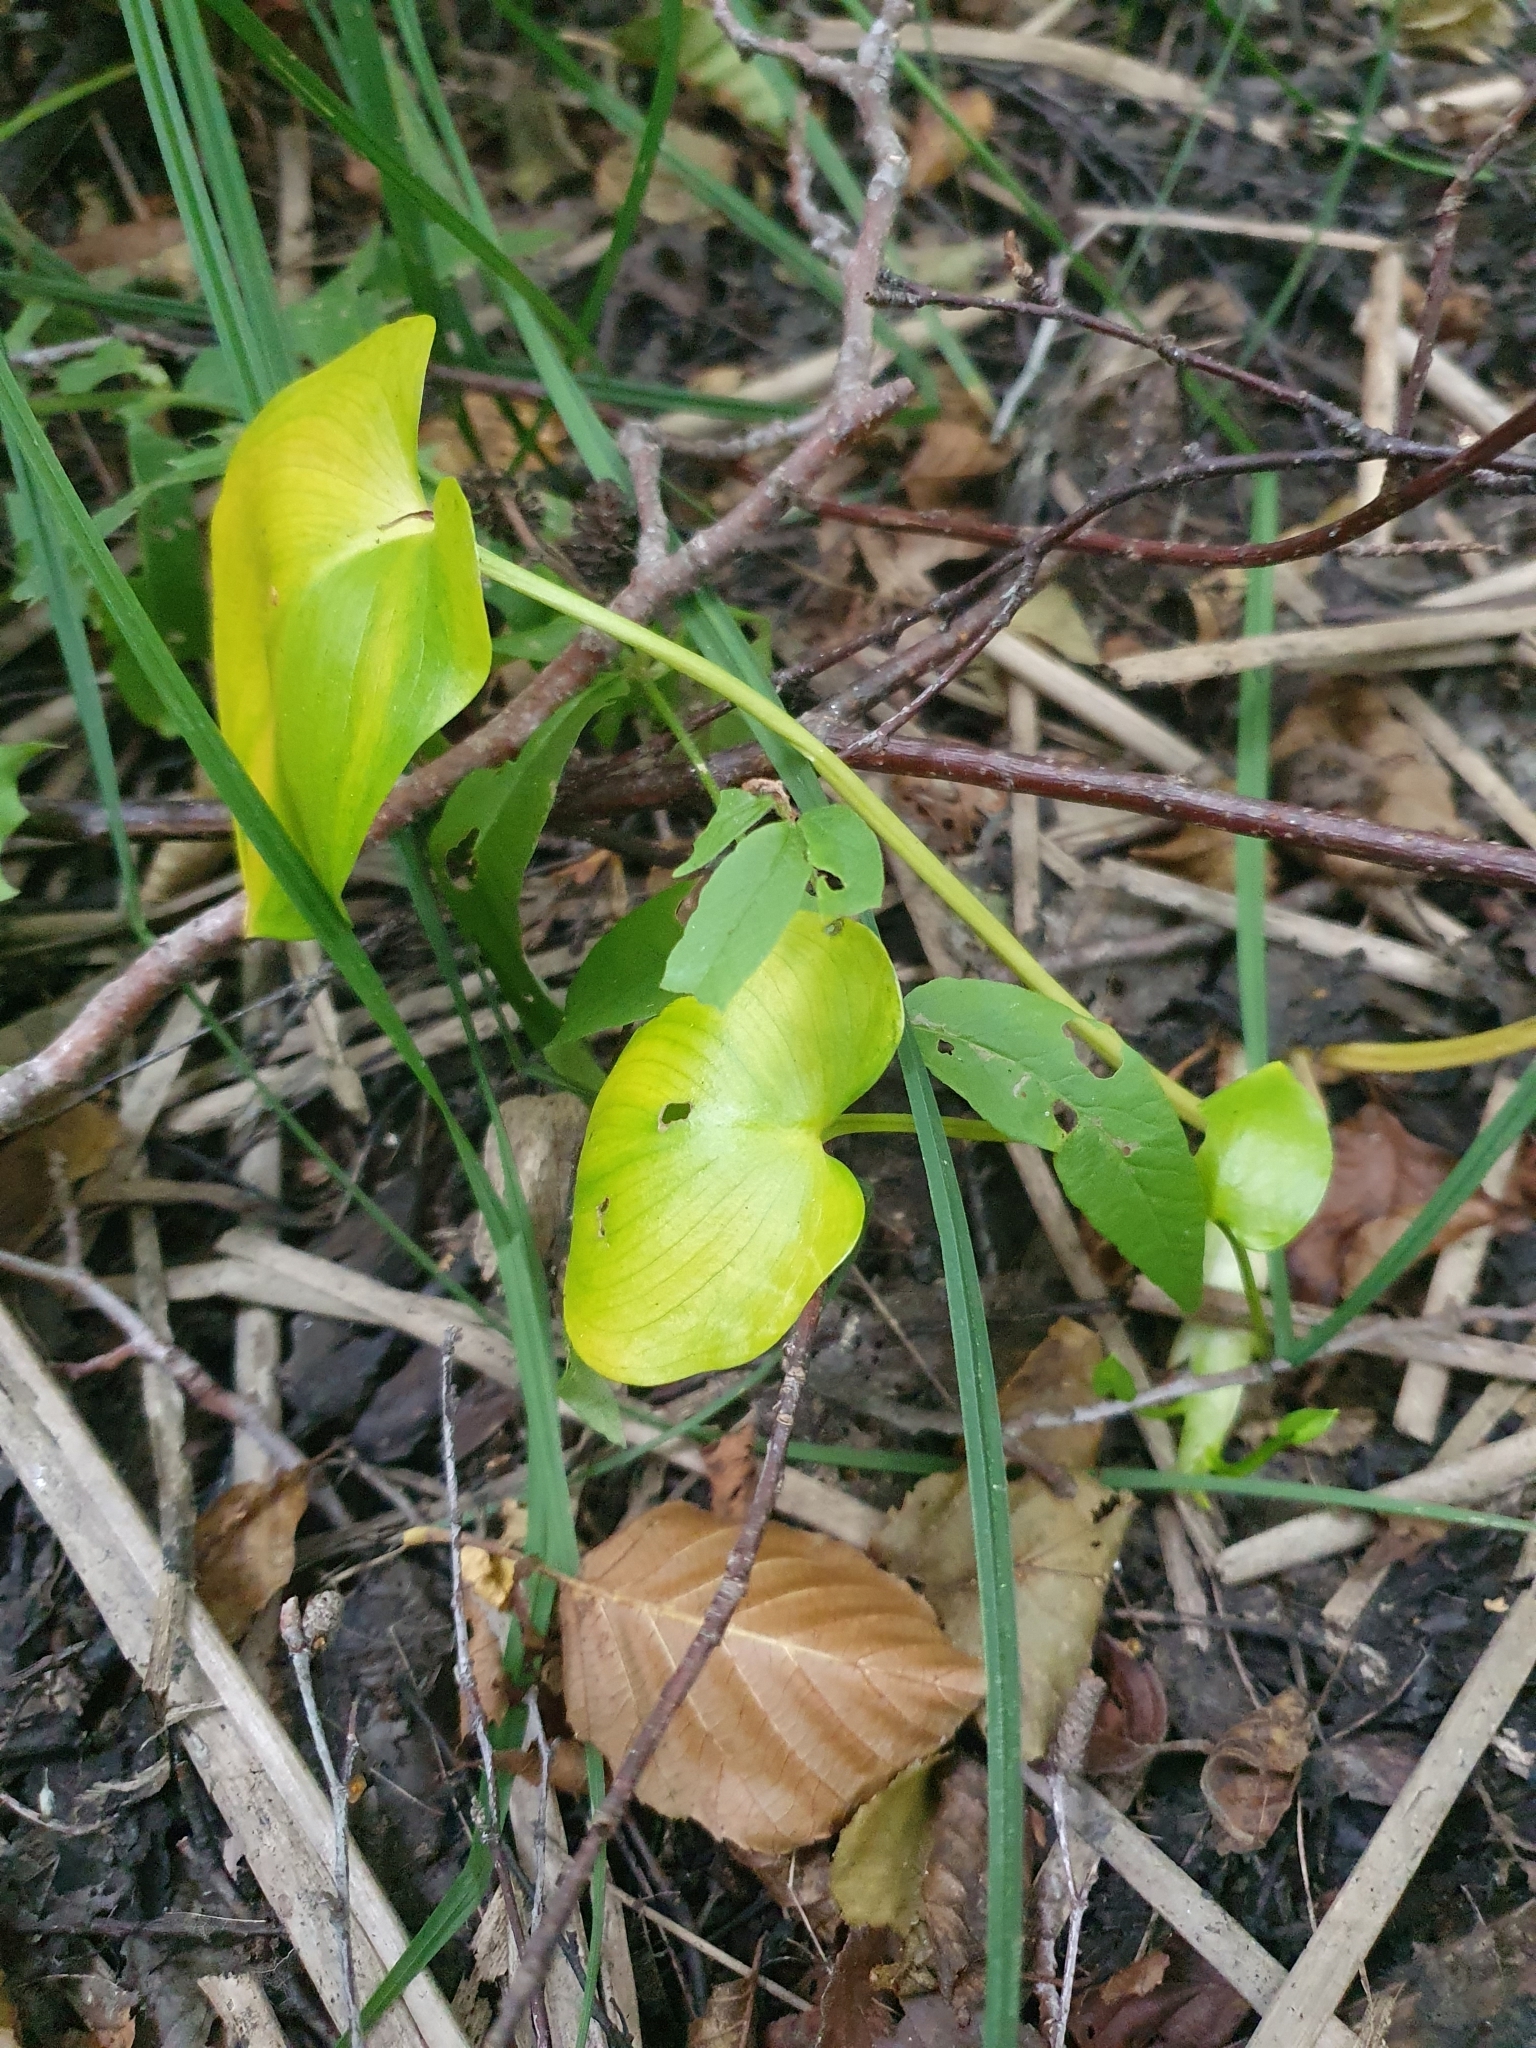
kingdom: Plantae
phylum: Tracheophyta
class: Liliopsida
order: Alismatales
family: Araceae
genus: Calla
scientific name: Calla palustris
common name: Bog arum
